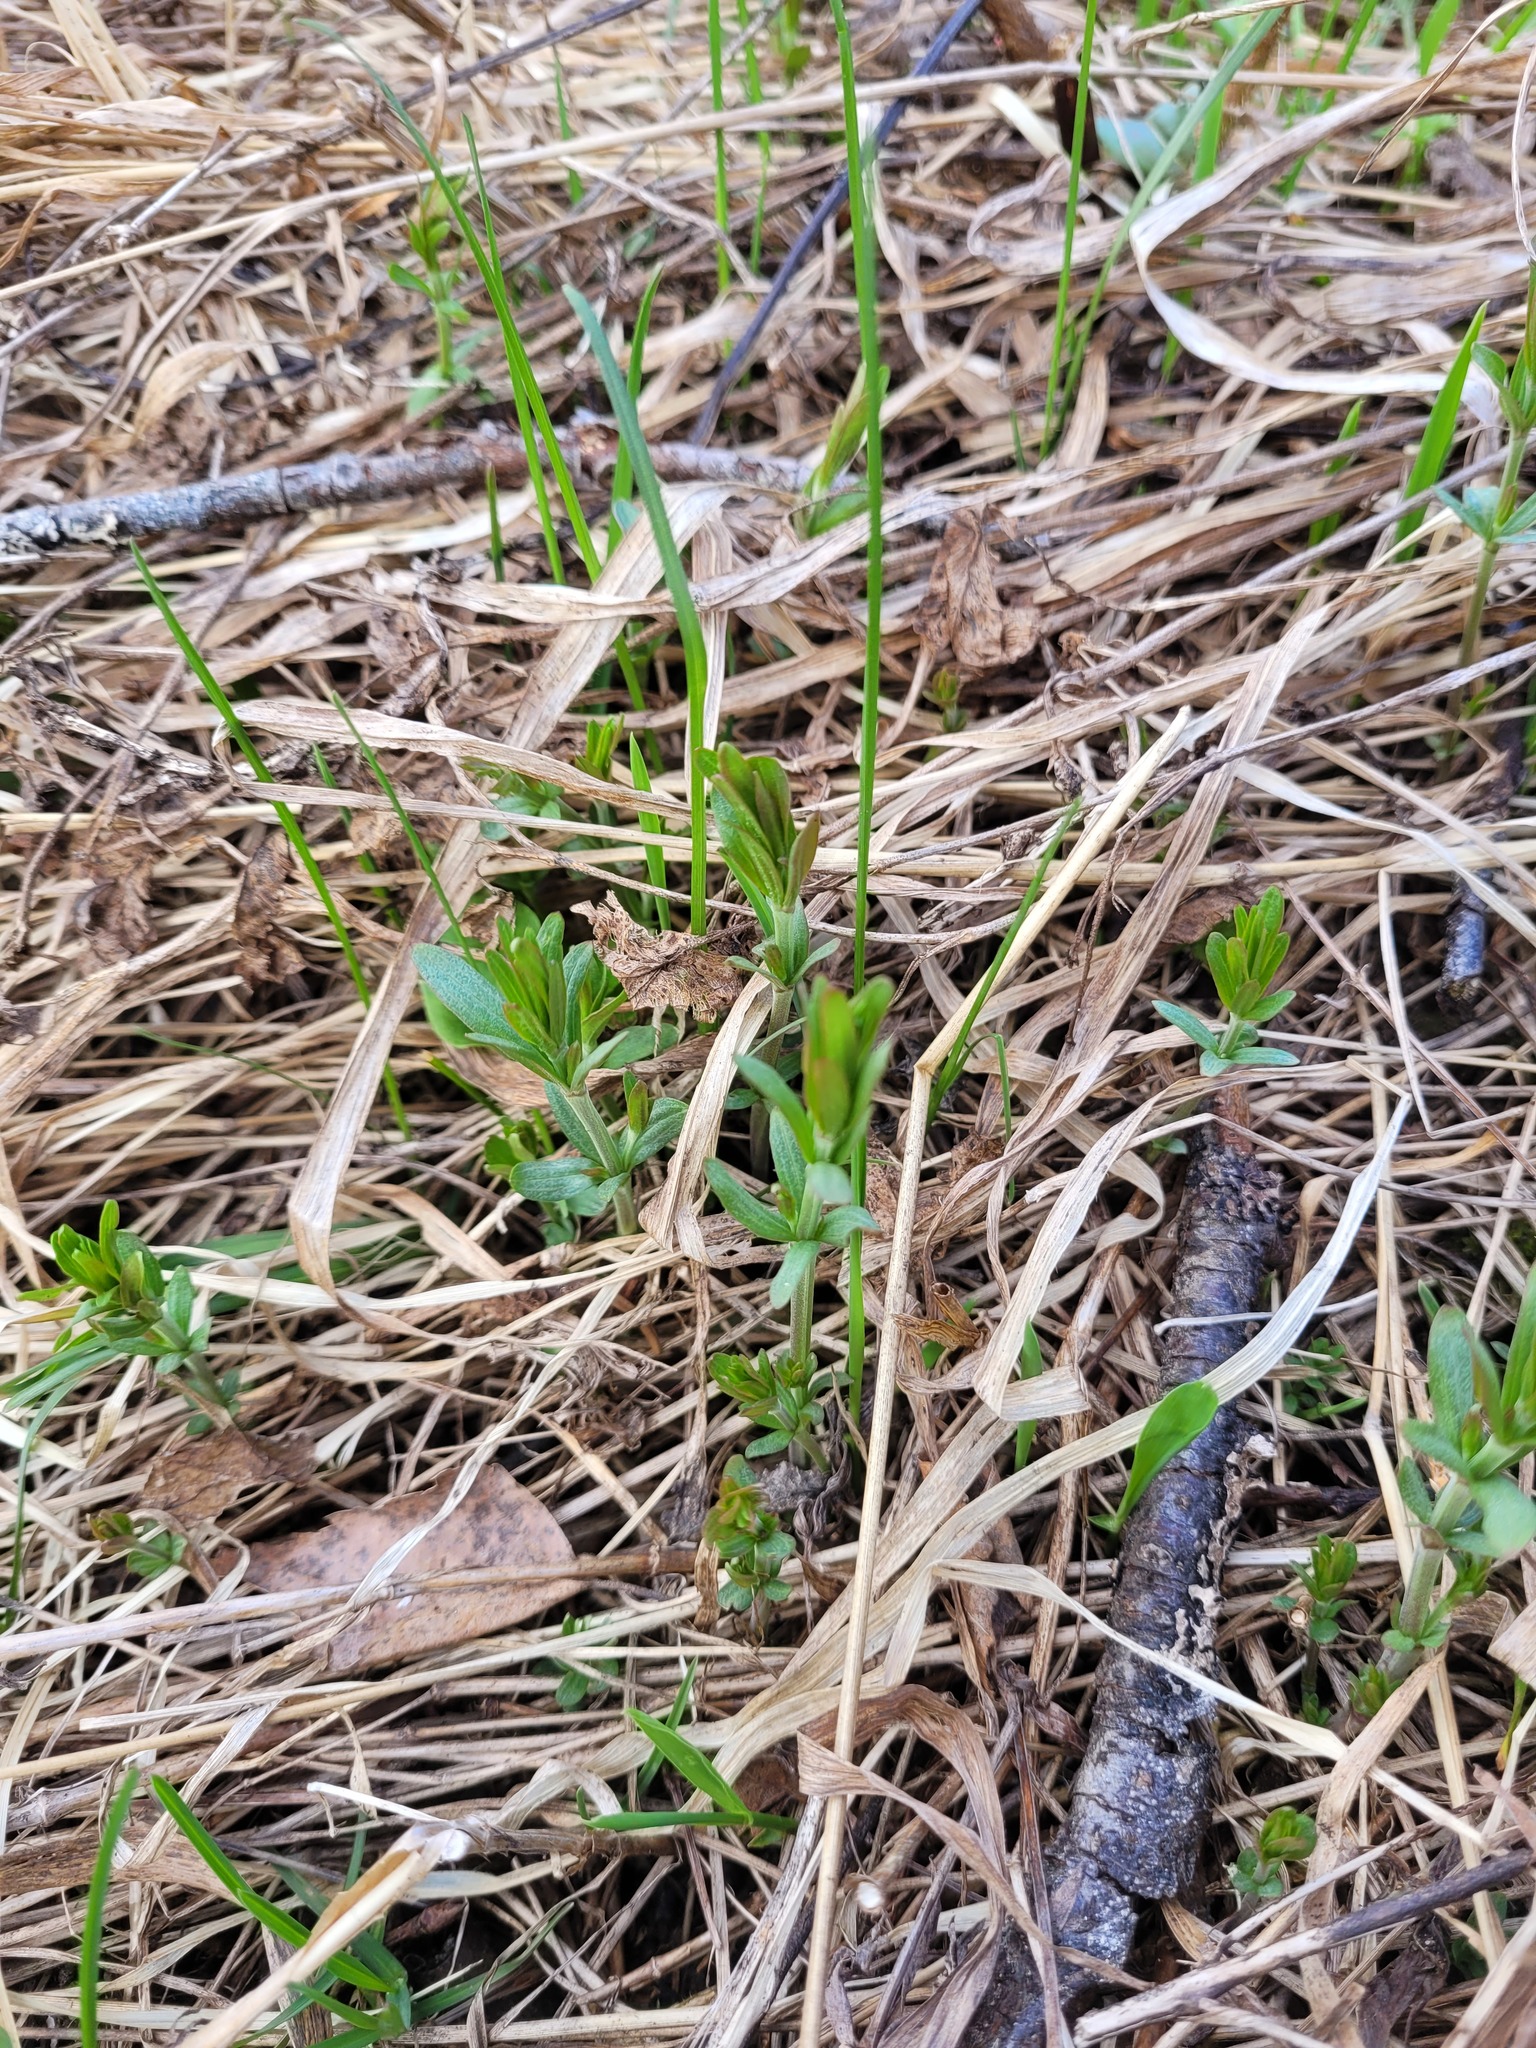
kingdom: Plantae
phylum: Tracheophyta
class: Magnoliopsida
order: Gentianales
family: Rubiaceae
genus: Galium
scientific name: Galium boreale
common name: Northern bedstraw
